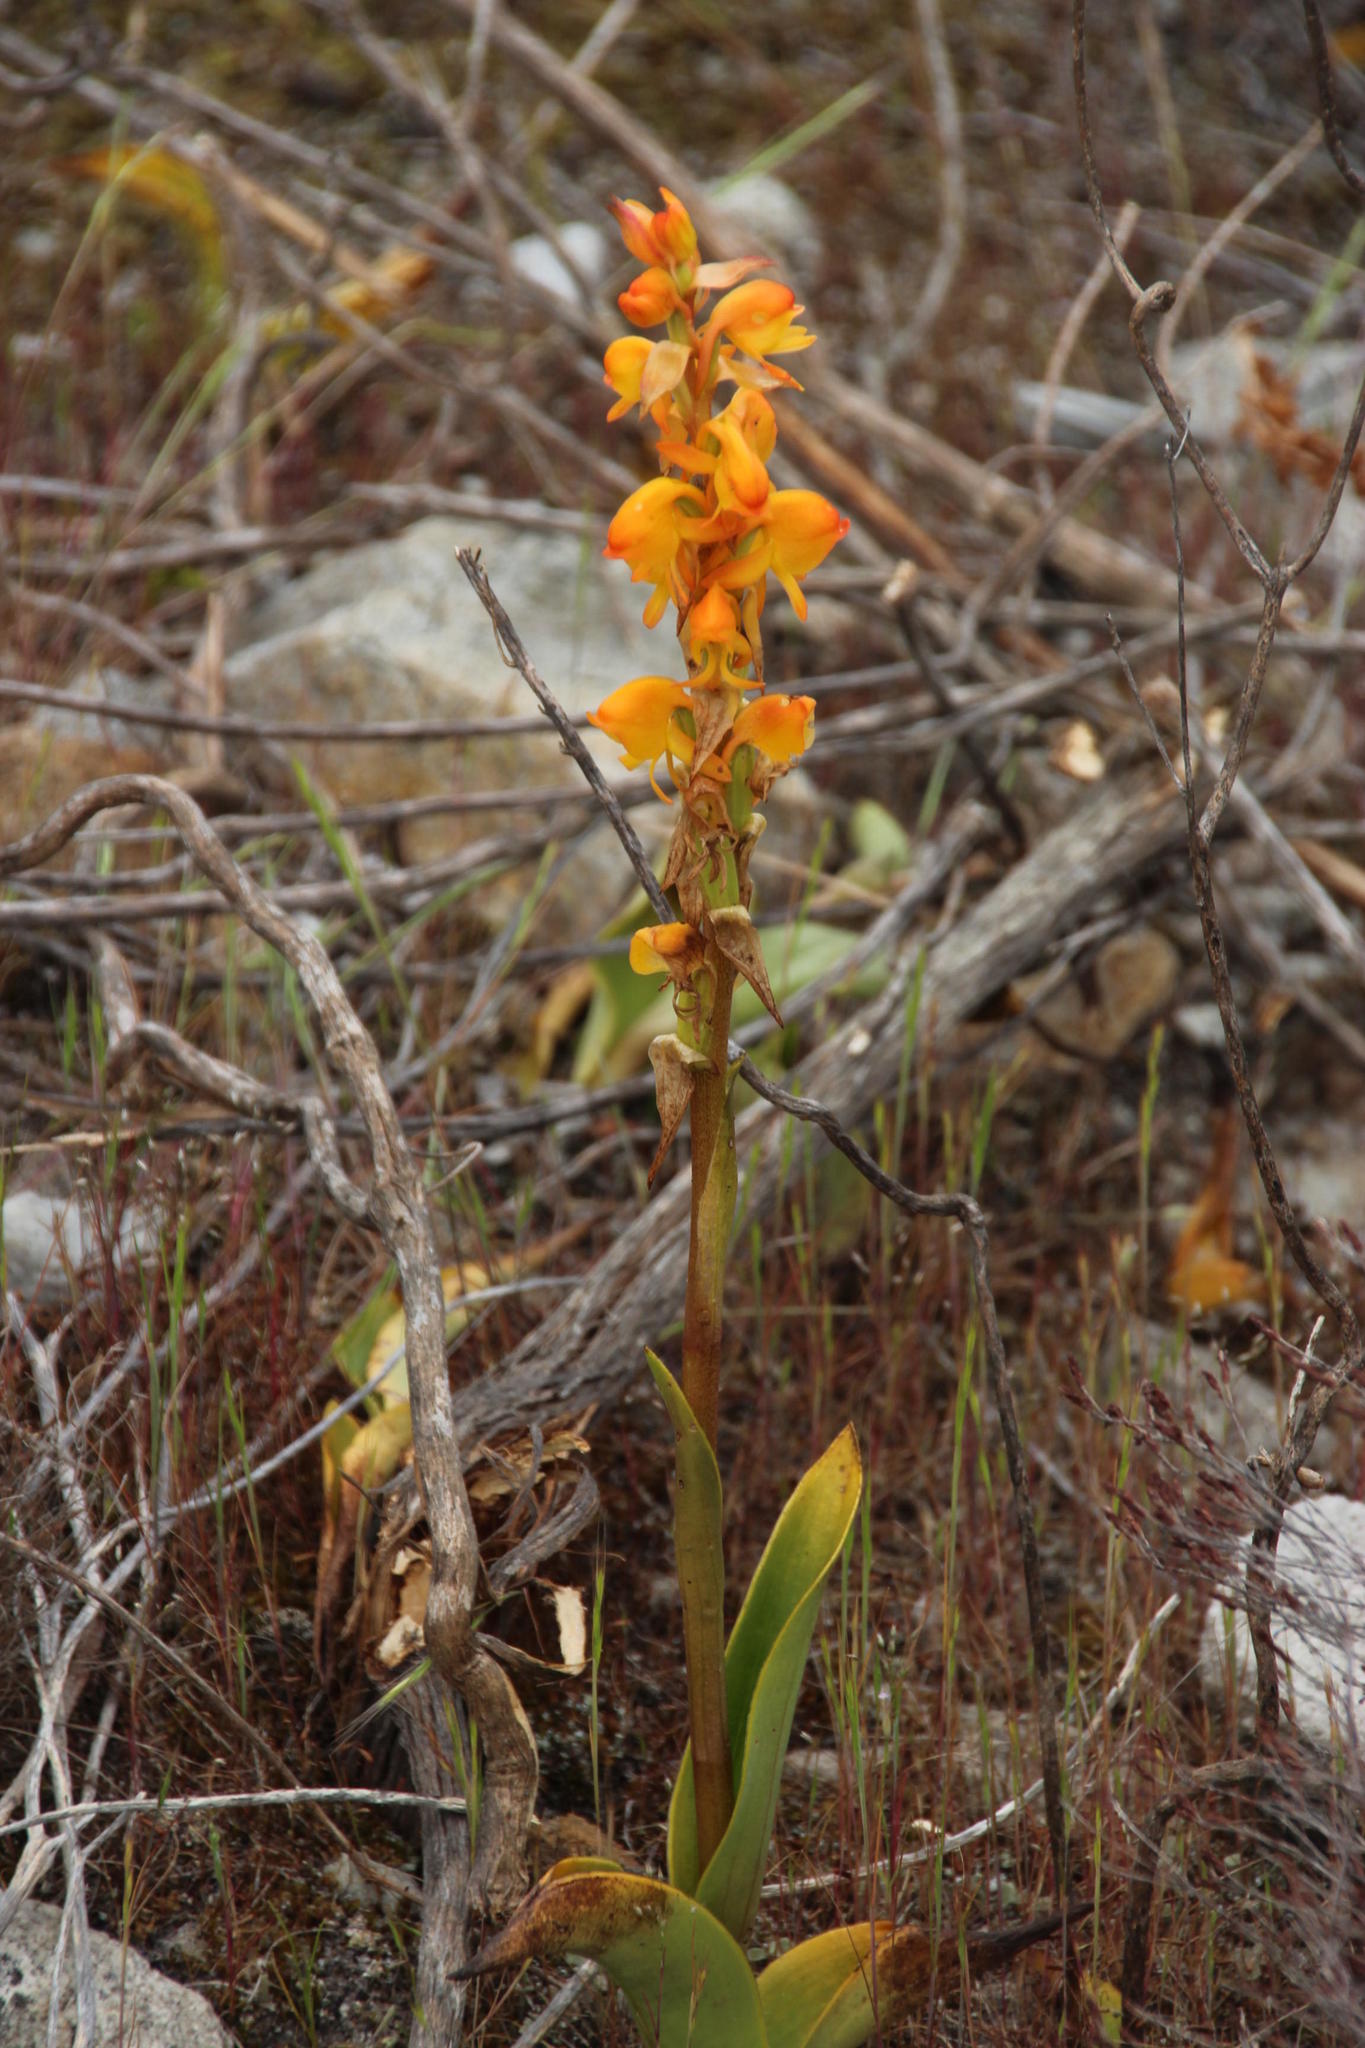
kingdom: Plantae
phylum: Tracheophyta
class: Liliopsida
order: Asparagales
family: Orchidaceae
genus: Satyrium
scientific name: Satyrium coriifolium
